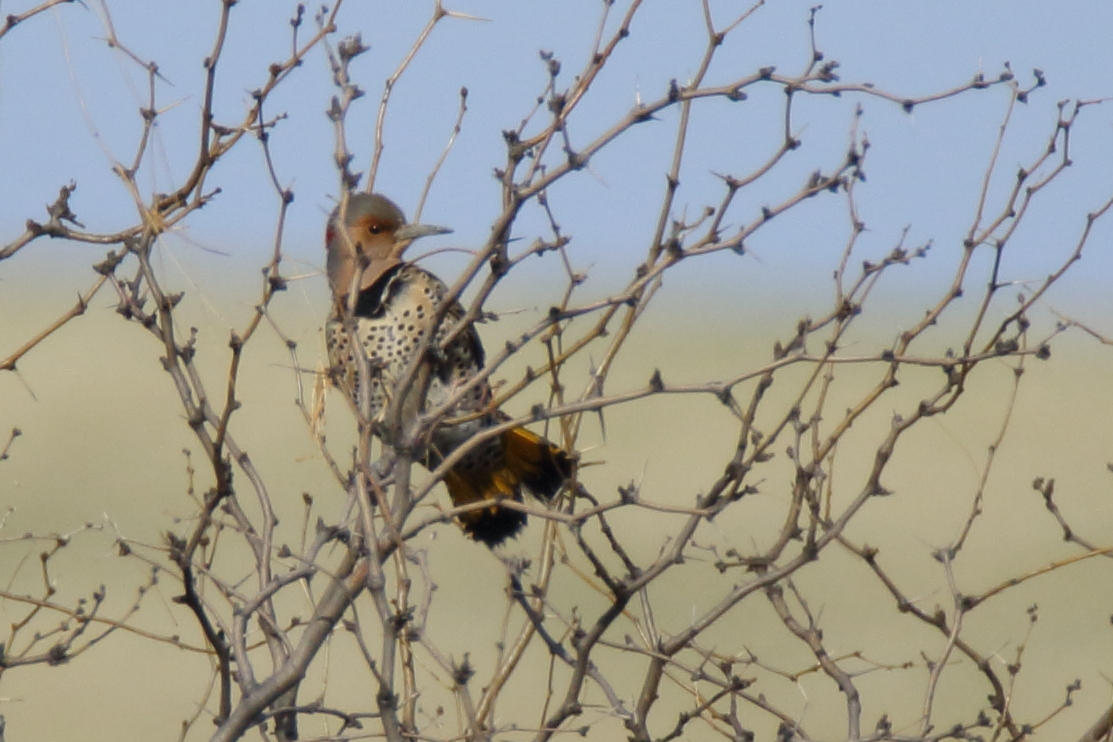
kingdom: Animalia
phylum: Chordata
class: Aves
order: Piciformes
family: Picidae
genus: Colaptes
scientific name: Colaptes auratus
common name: Northern flicker
